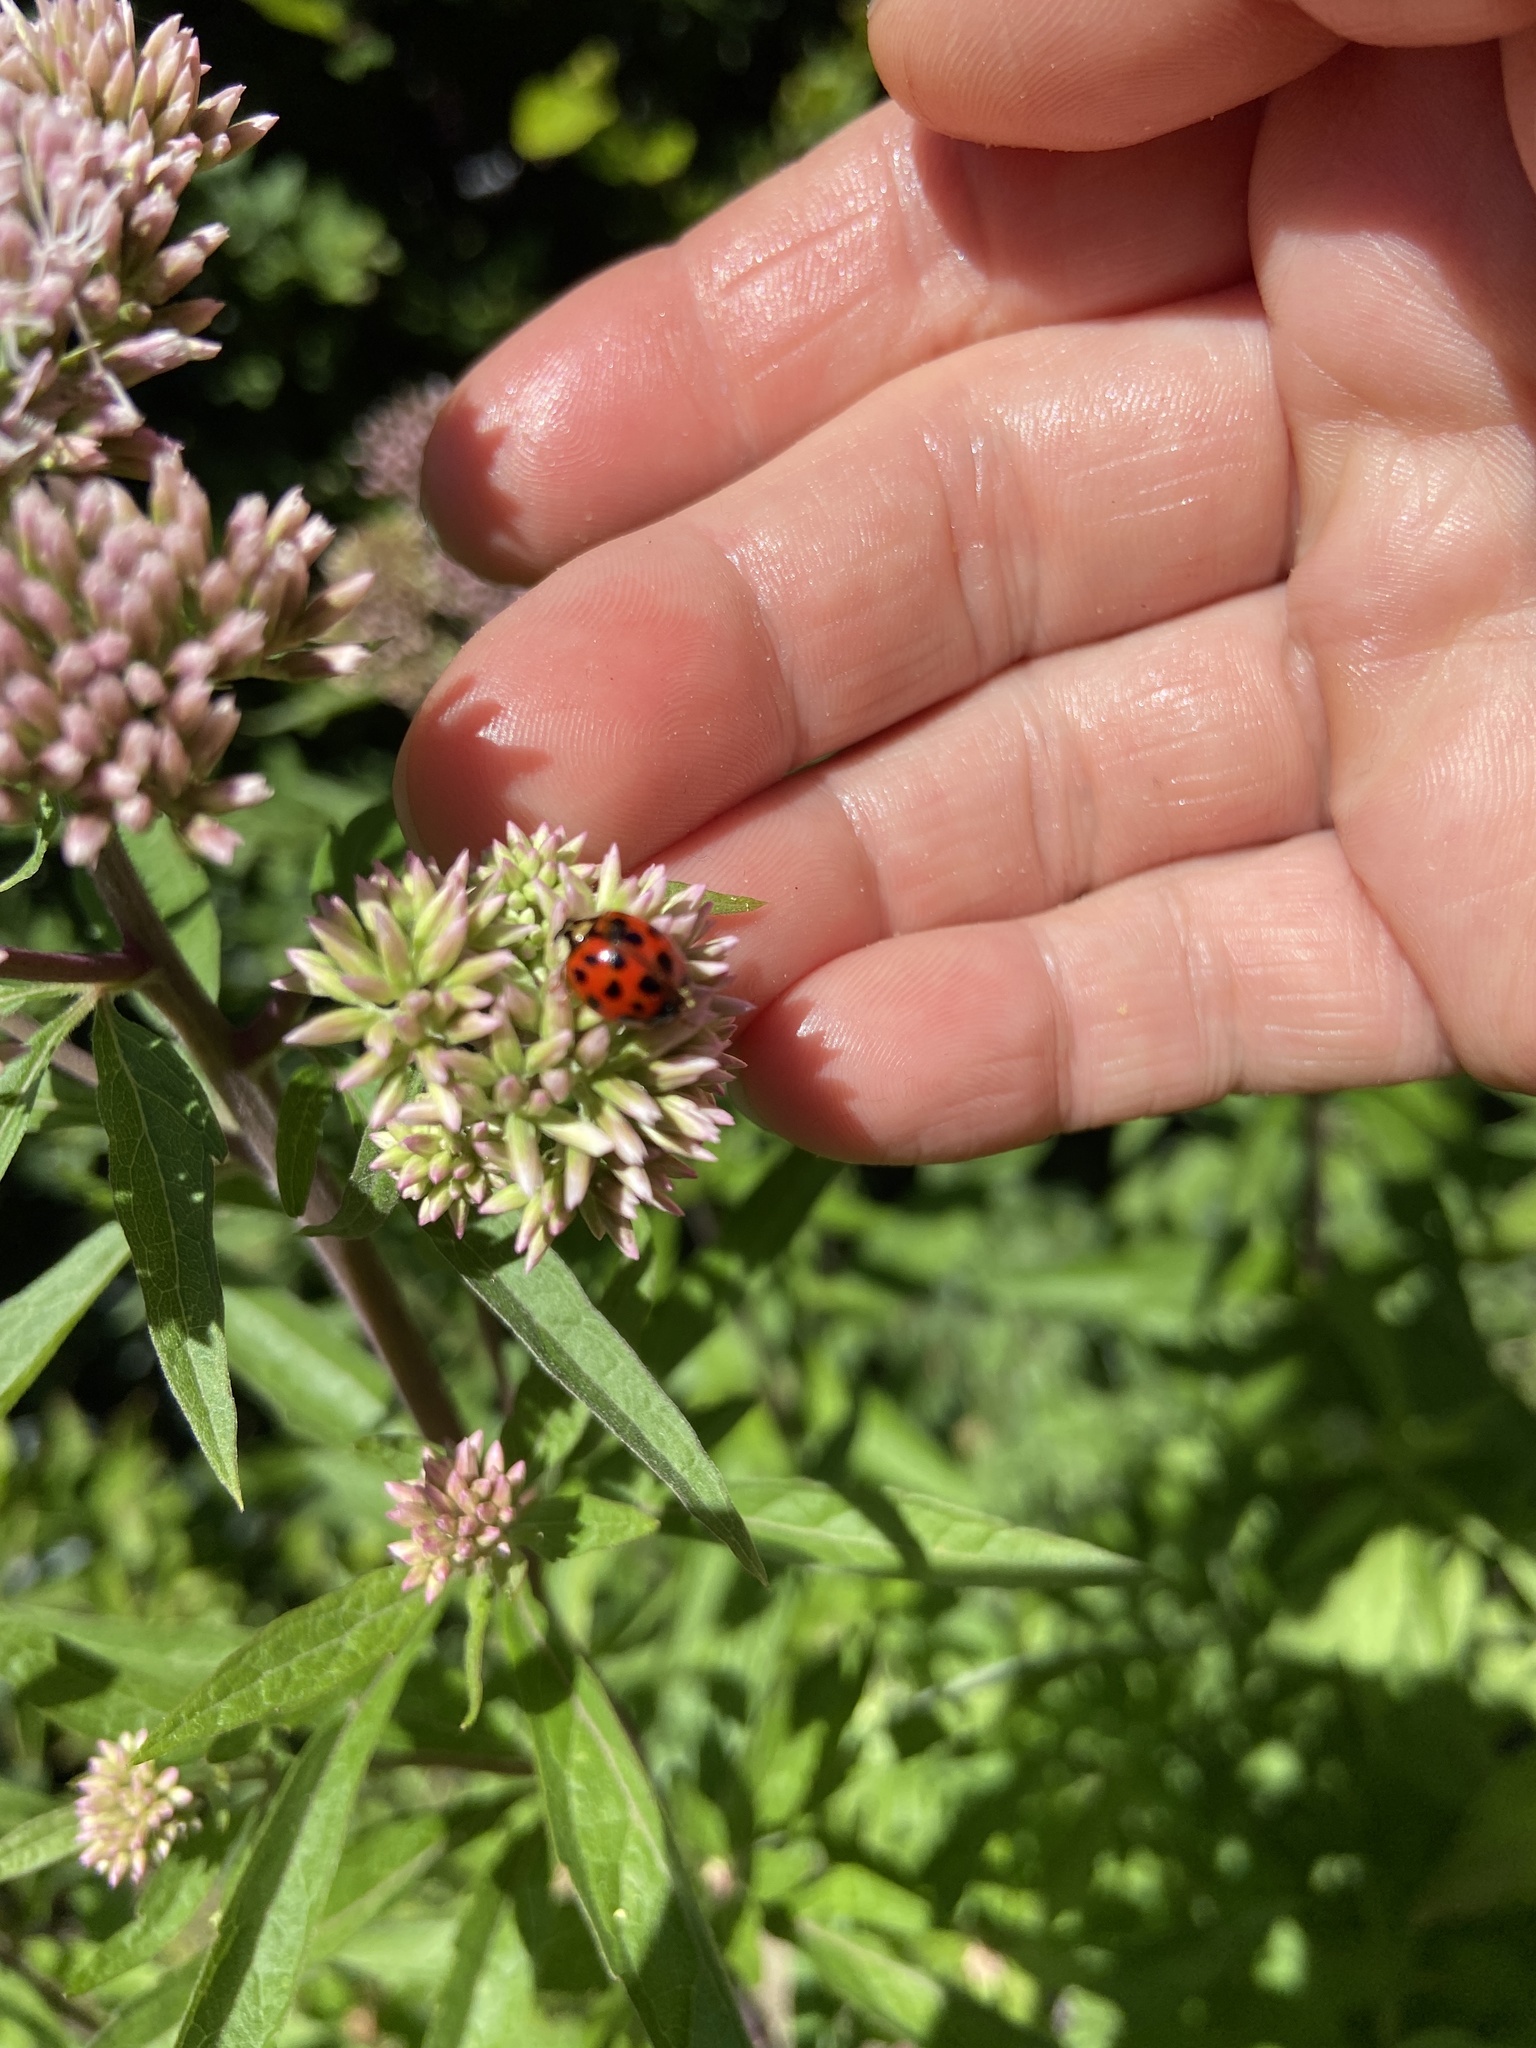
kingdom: Animalia
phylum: Arthropoda
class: Insecta
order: Coleoptera
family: Coccinellidae
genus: Harmonia
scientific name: Harmonia axyridis
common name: Harlequin ladybird
